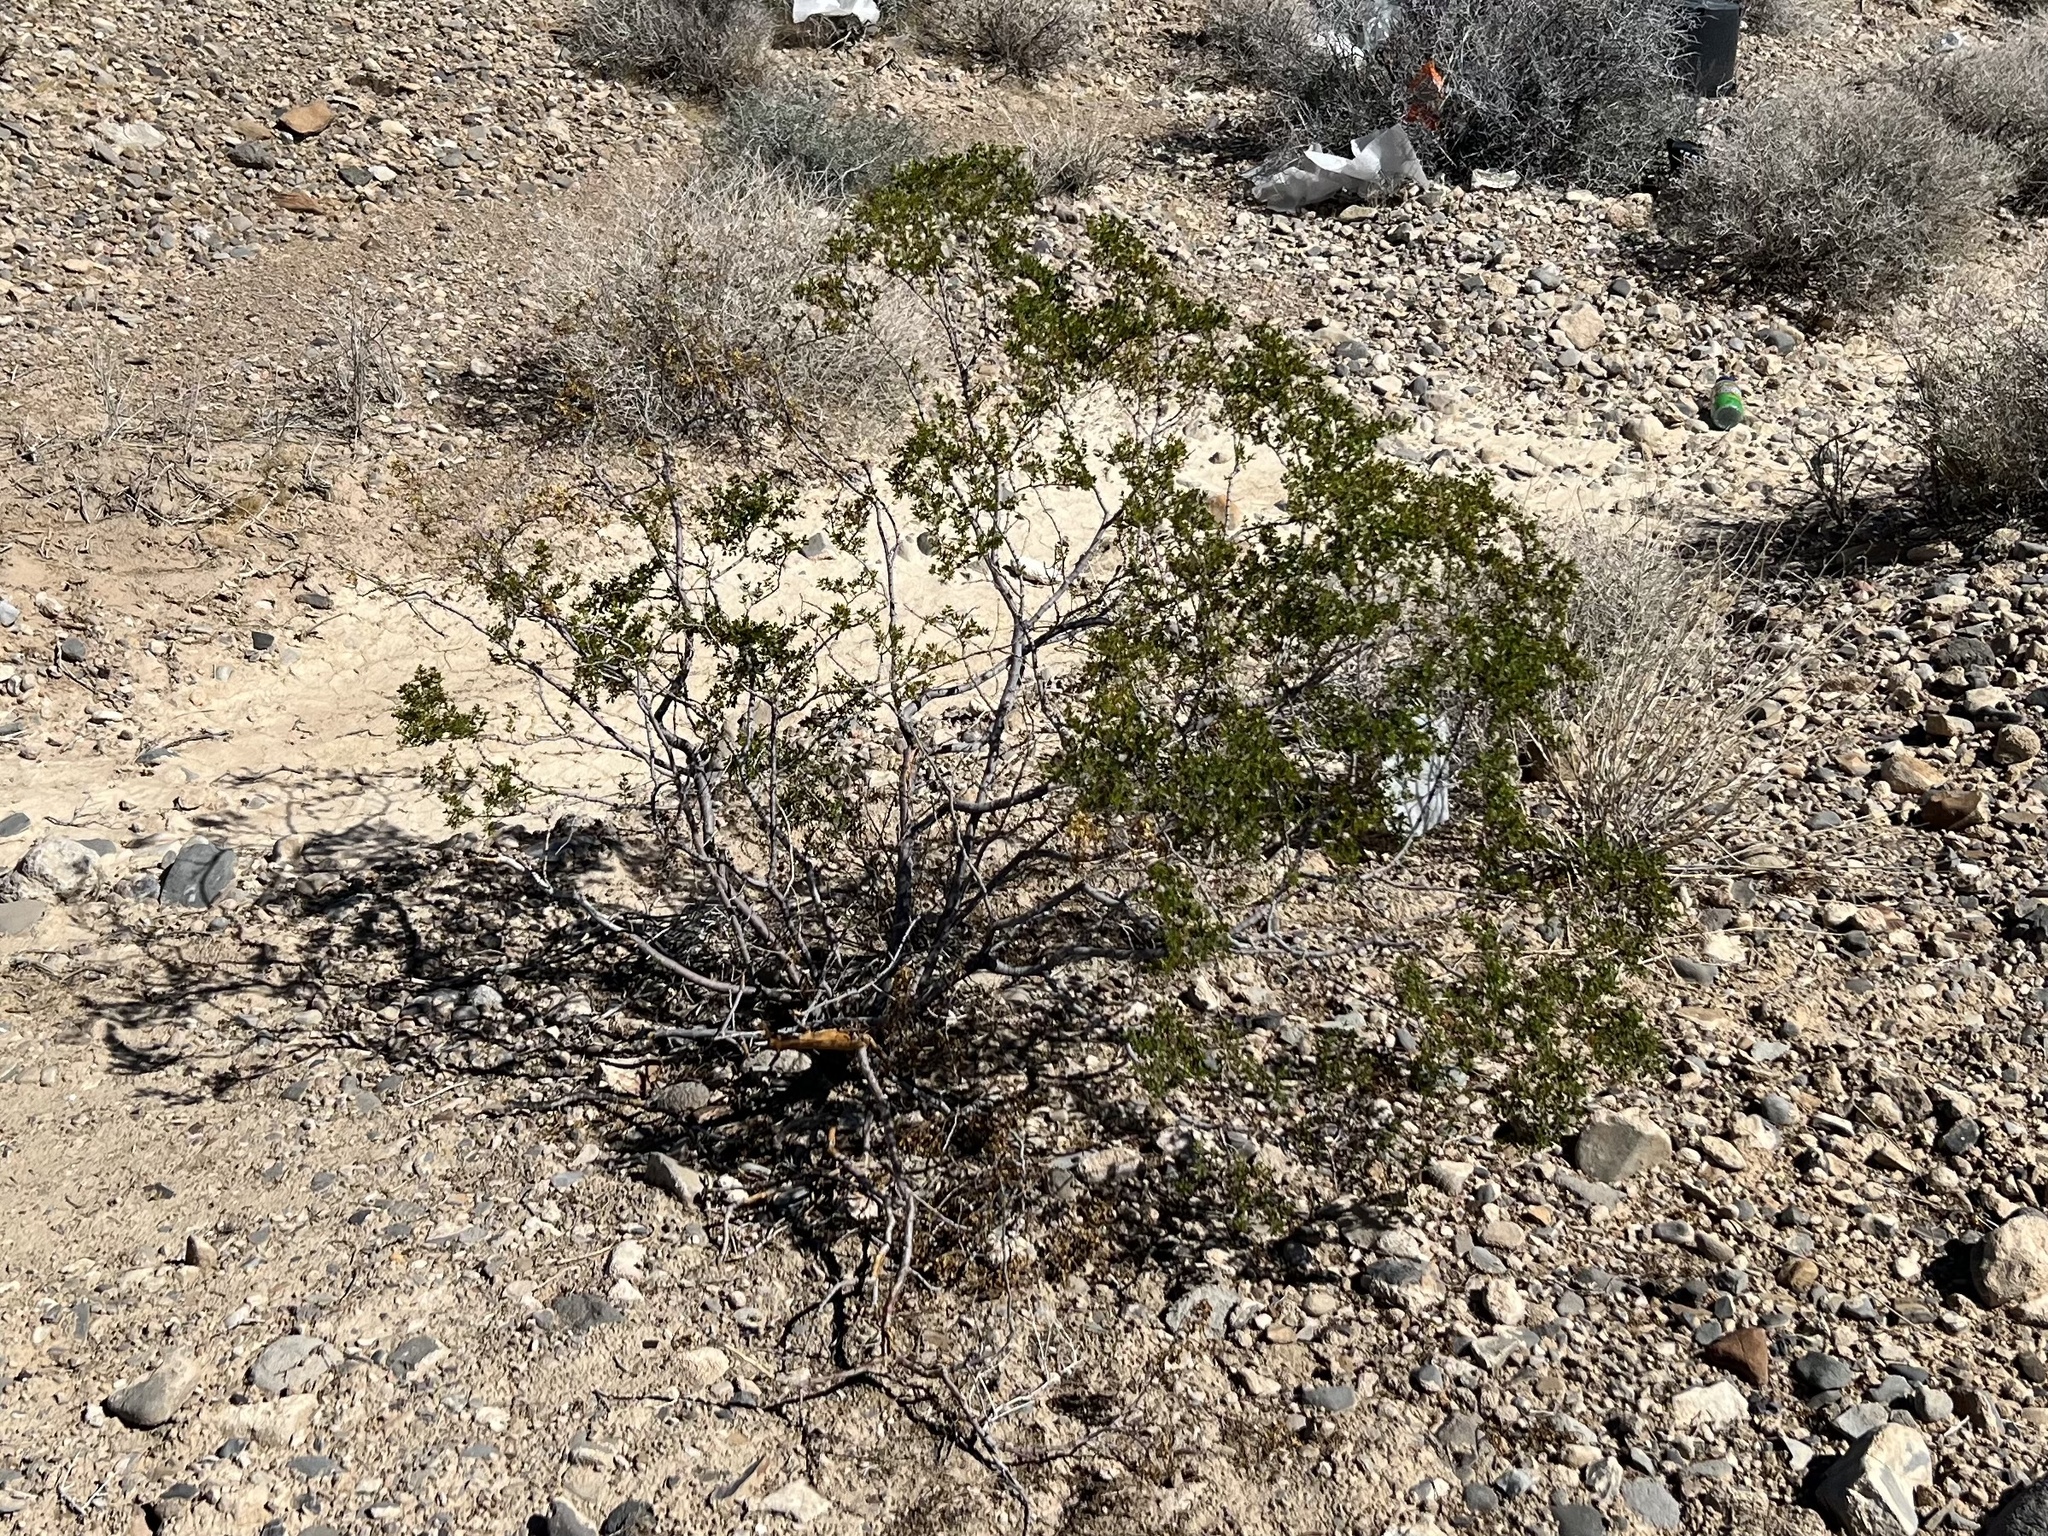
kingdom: Plantae
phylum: Tracheophyta
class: Magnoliopsida
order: Zygophyllales
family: Zygophyllaceae
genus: Larrea
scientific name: Larrea tridentata
